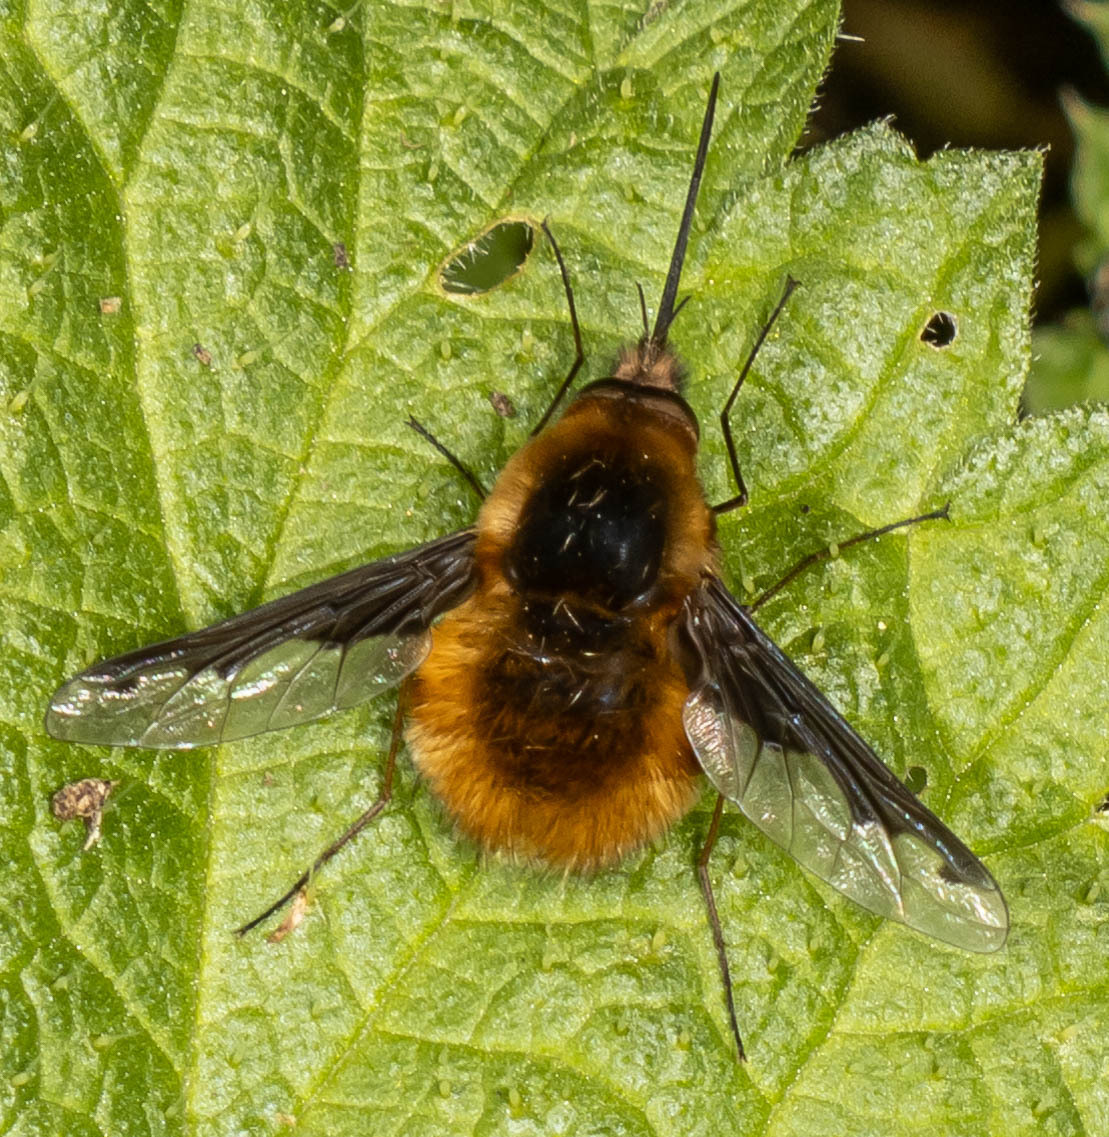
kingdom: Animalia
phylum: Arthropoda
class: Insecta
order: Diptera
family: Bombyliidae
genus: Bombylius
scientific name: Bombylius major
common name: Bee fly
